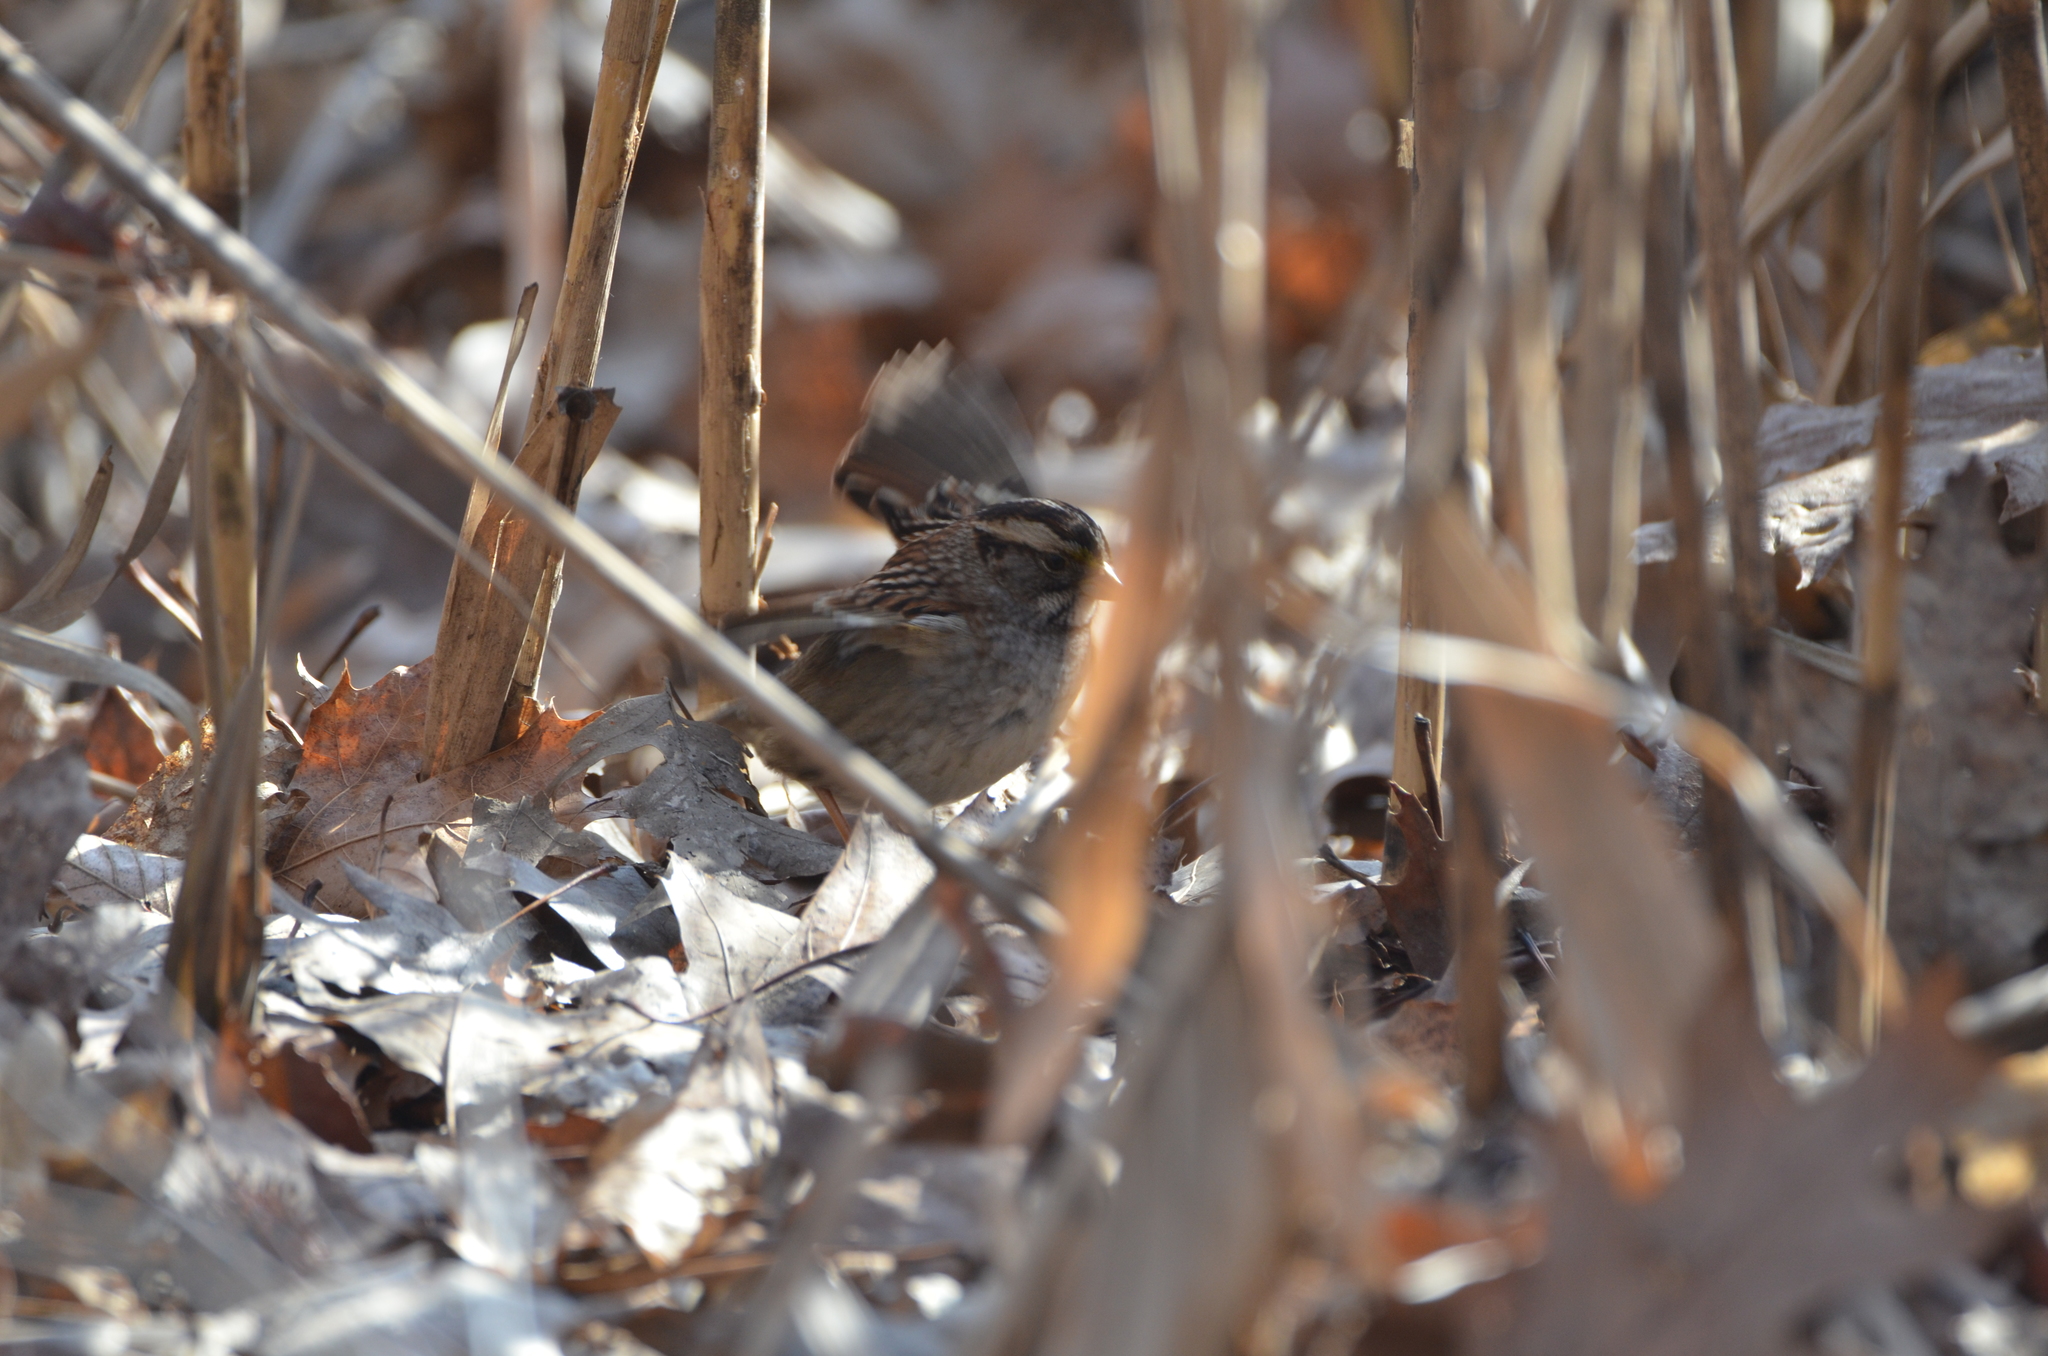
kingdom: Animalia
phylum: Chordata
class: Aves
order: Passeriformes
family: Passerellidae
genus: Zonotrichia
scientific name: Zonotrichia albicollis
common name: White-throated sparrow
